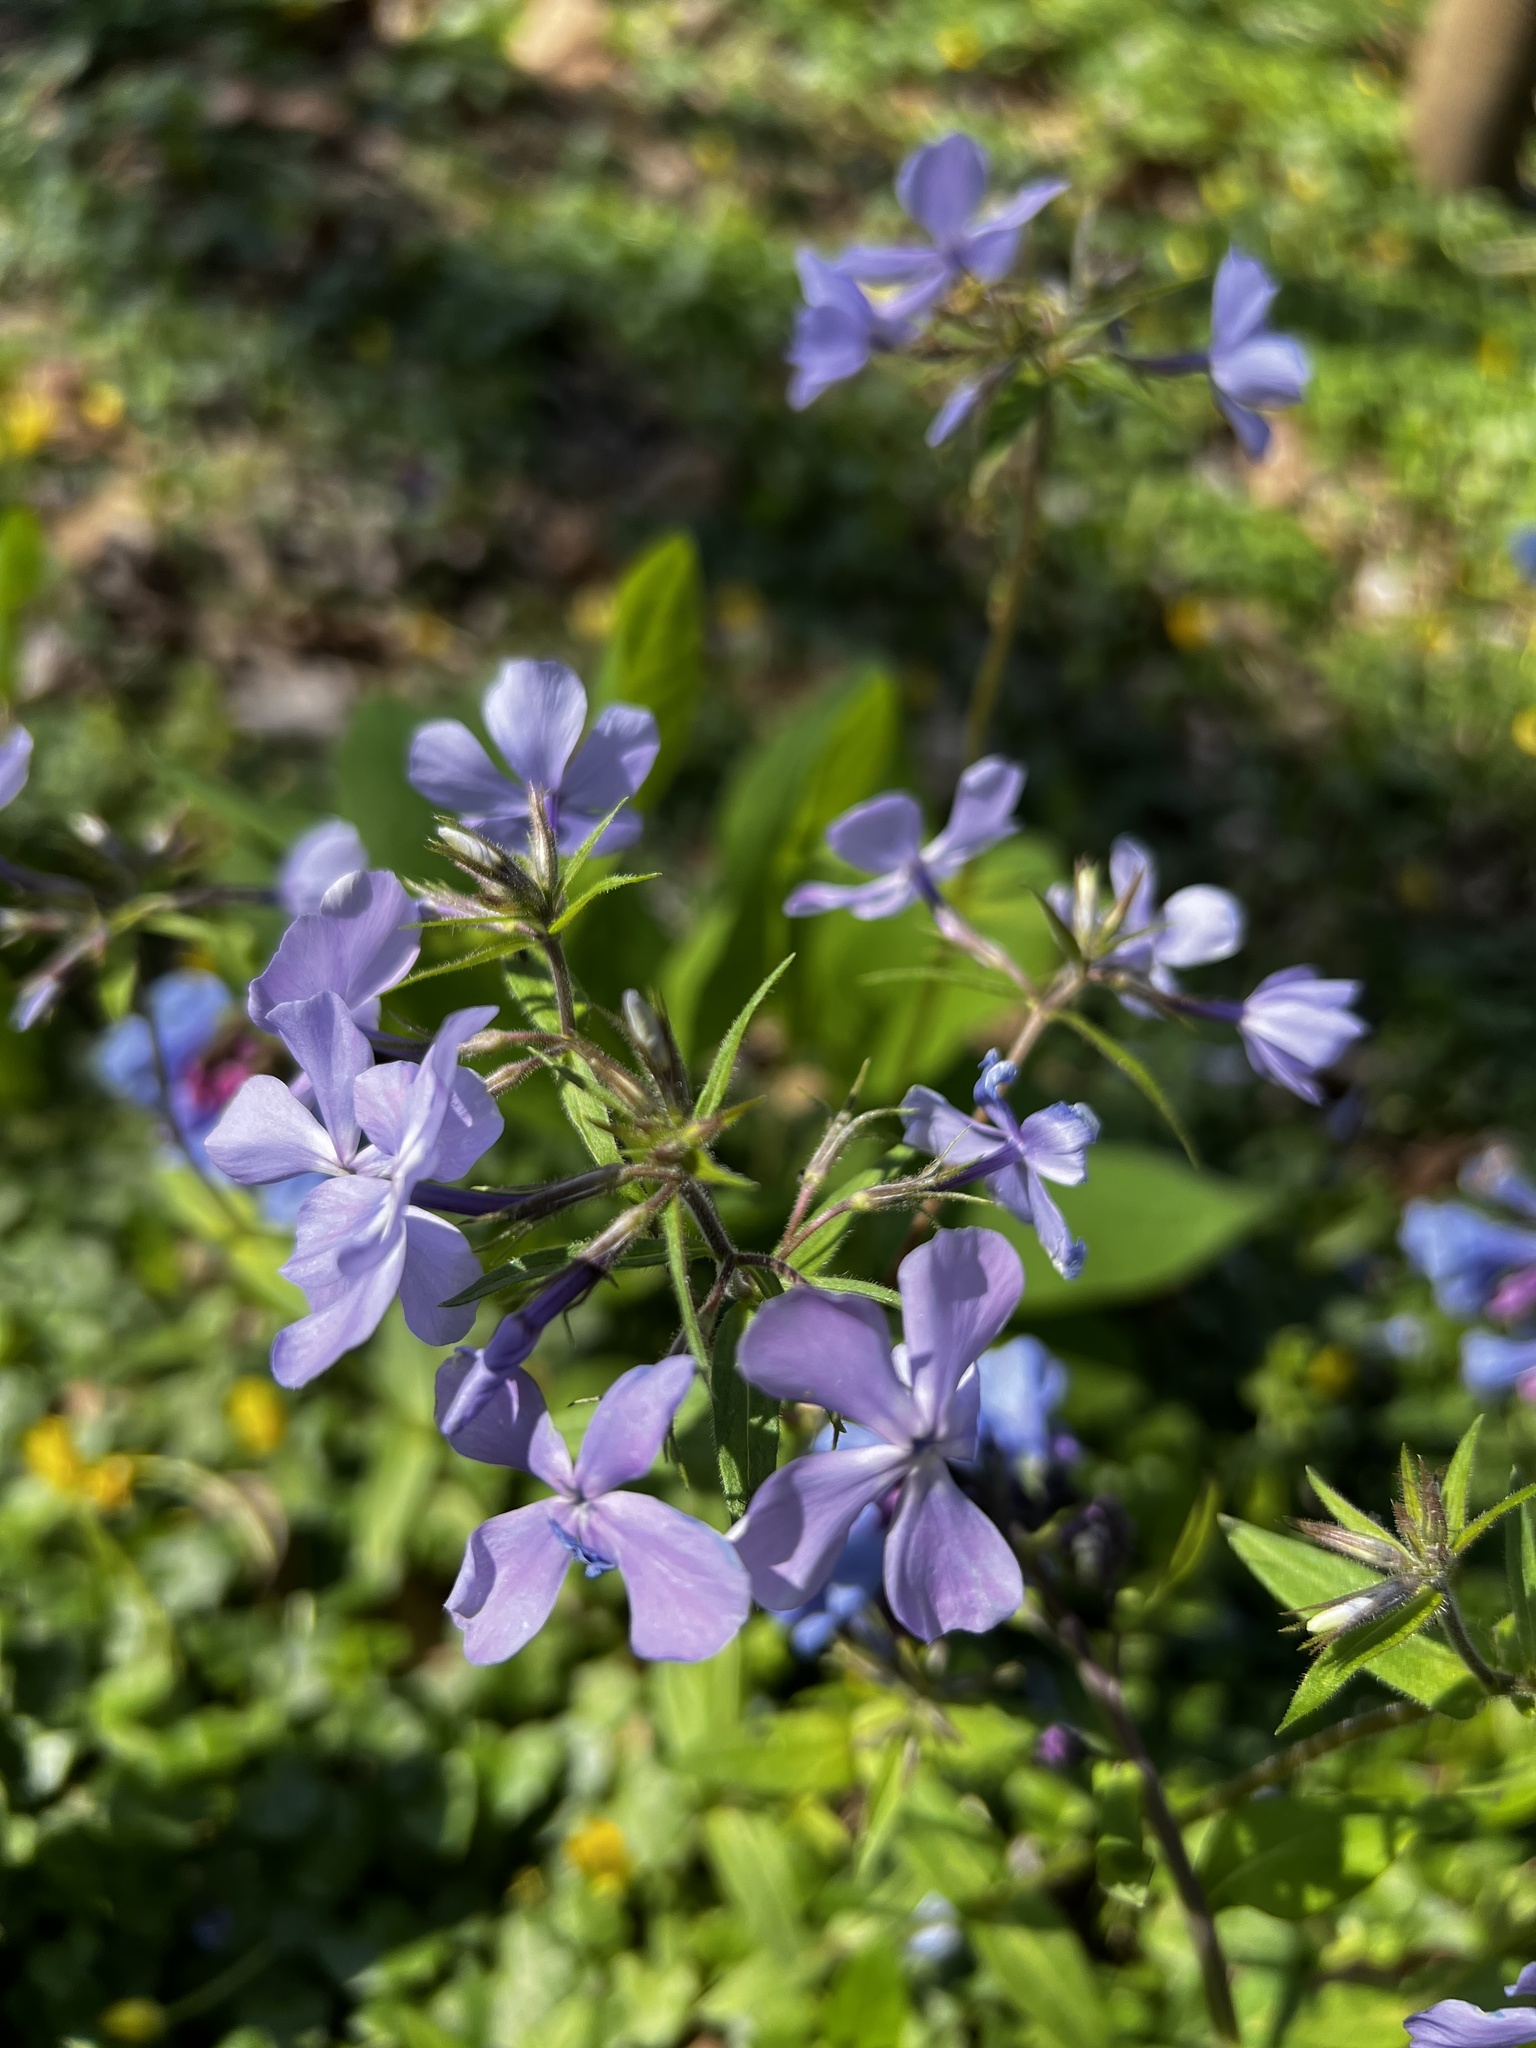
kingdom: Plantae
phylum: Tracheophyta
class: Magnoliopsida
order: Ericales
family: Polemoniaceae
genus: Phlox
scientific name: Phlox divaricata
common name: Blue phlox
